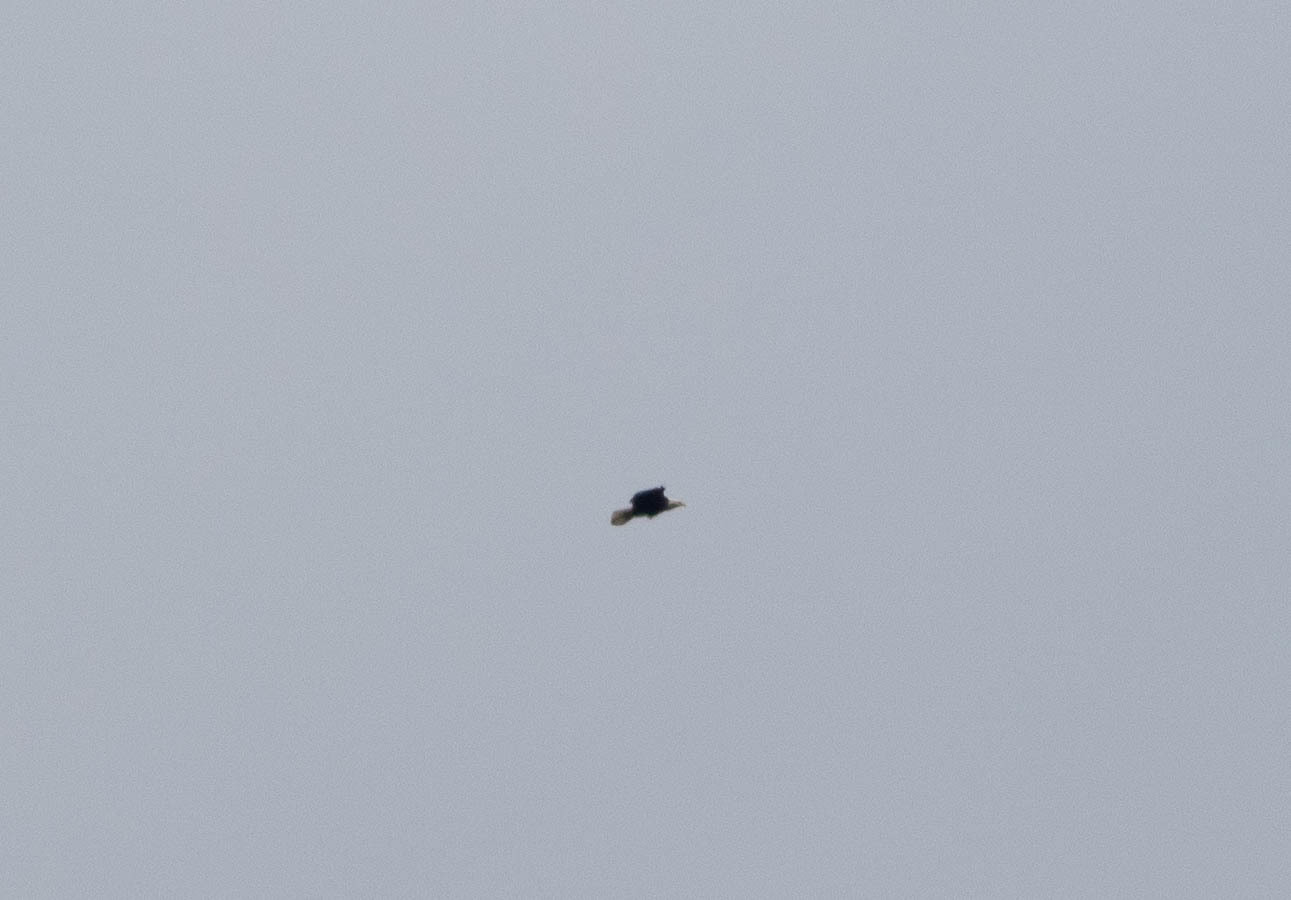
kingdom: Animalia
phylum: Chordata
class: Aves
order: Accipitriformes
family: Accipitridae
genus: Haliaeetus
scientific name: Haliaeetus leucocephalus
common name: Bald eagle
